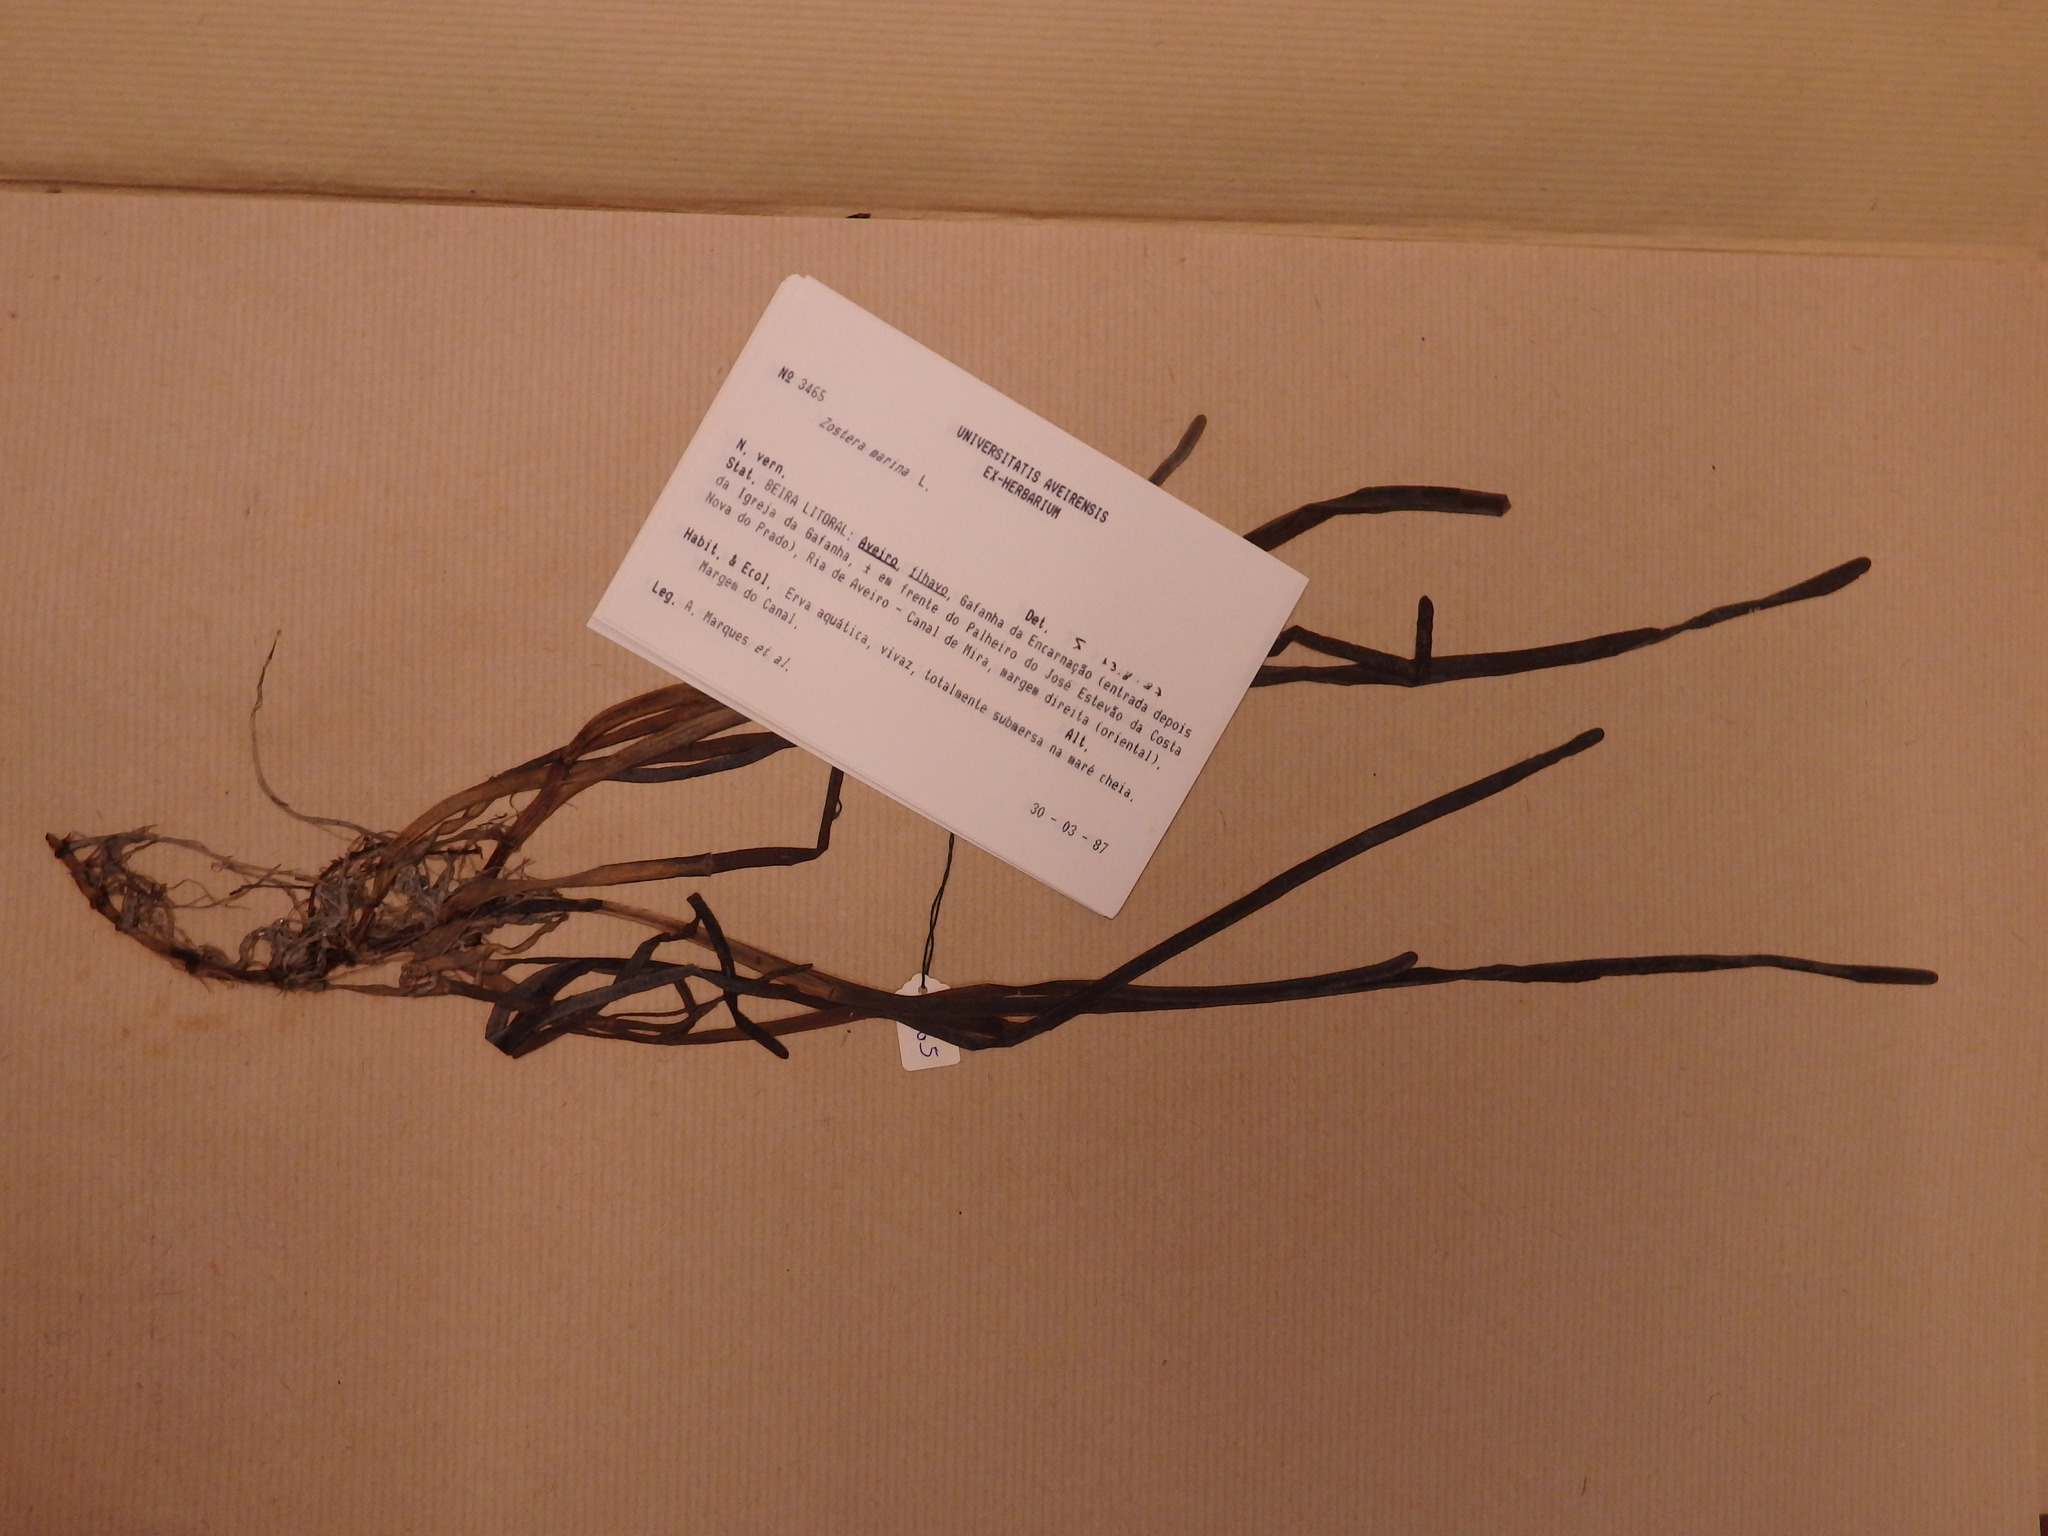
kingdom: Plantae
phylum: Tracheophyta
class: Liliopsida
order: Alismatales
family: Zosteraceae
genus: Zostera
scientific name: Zostera marina
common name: Eelgrass
